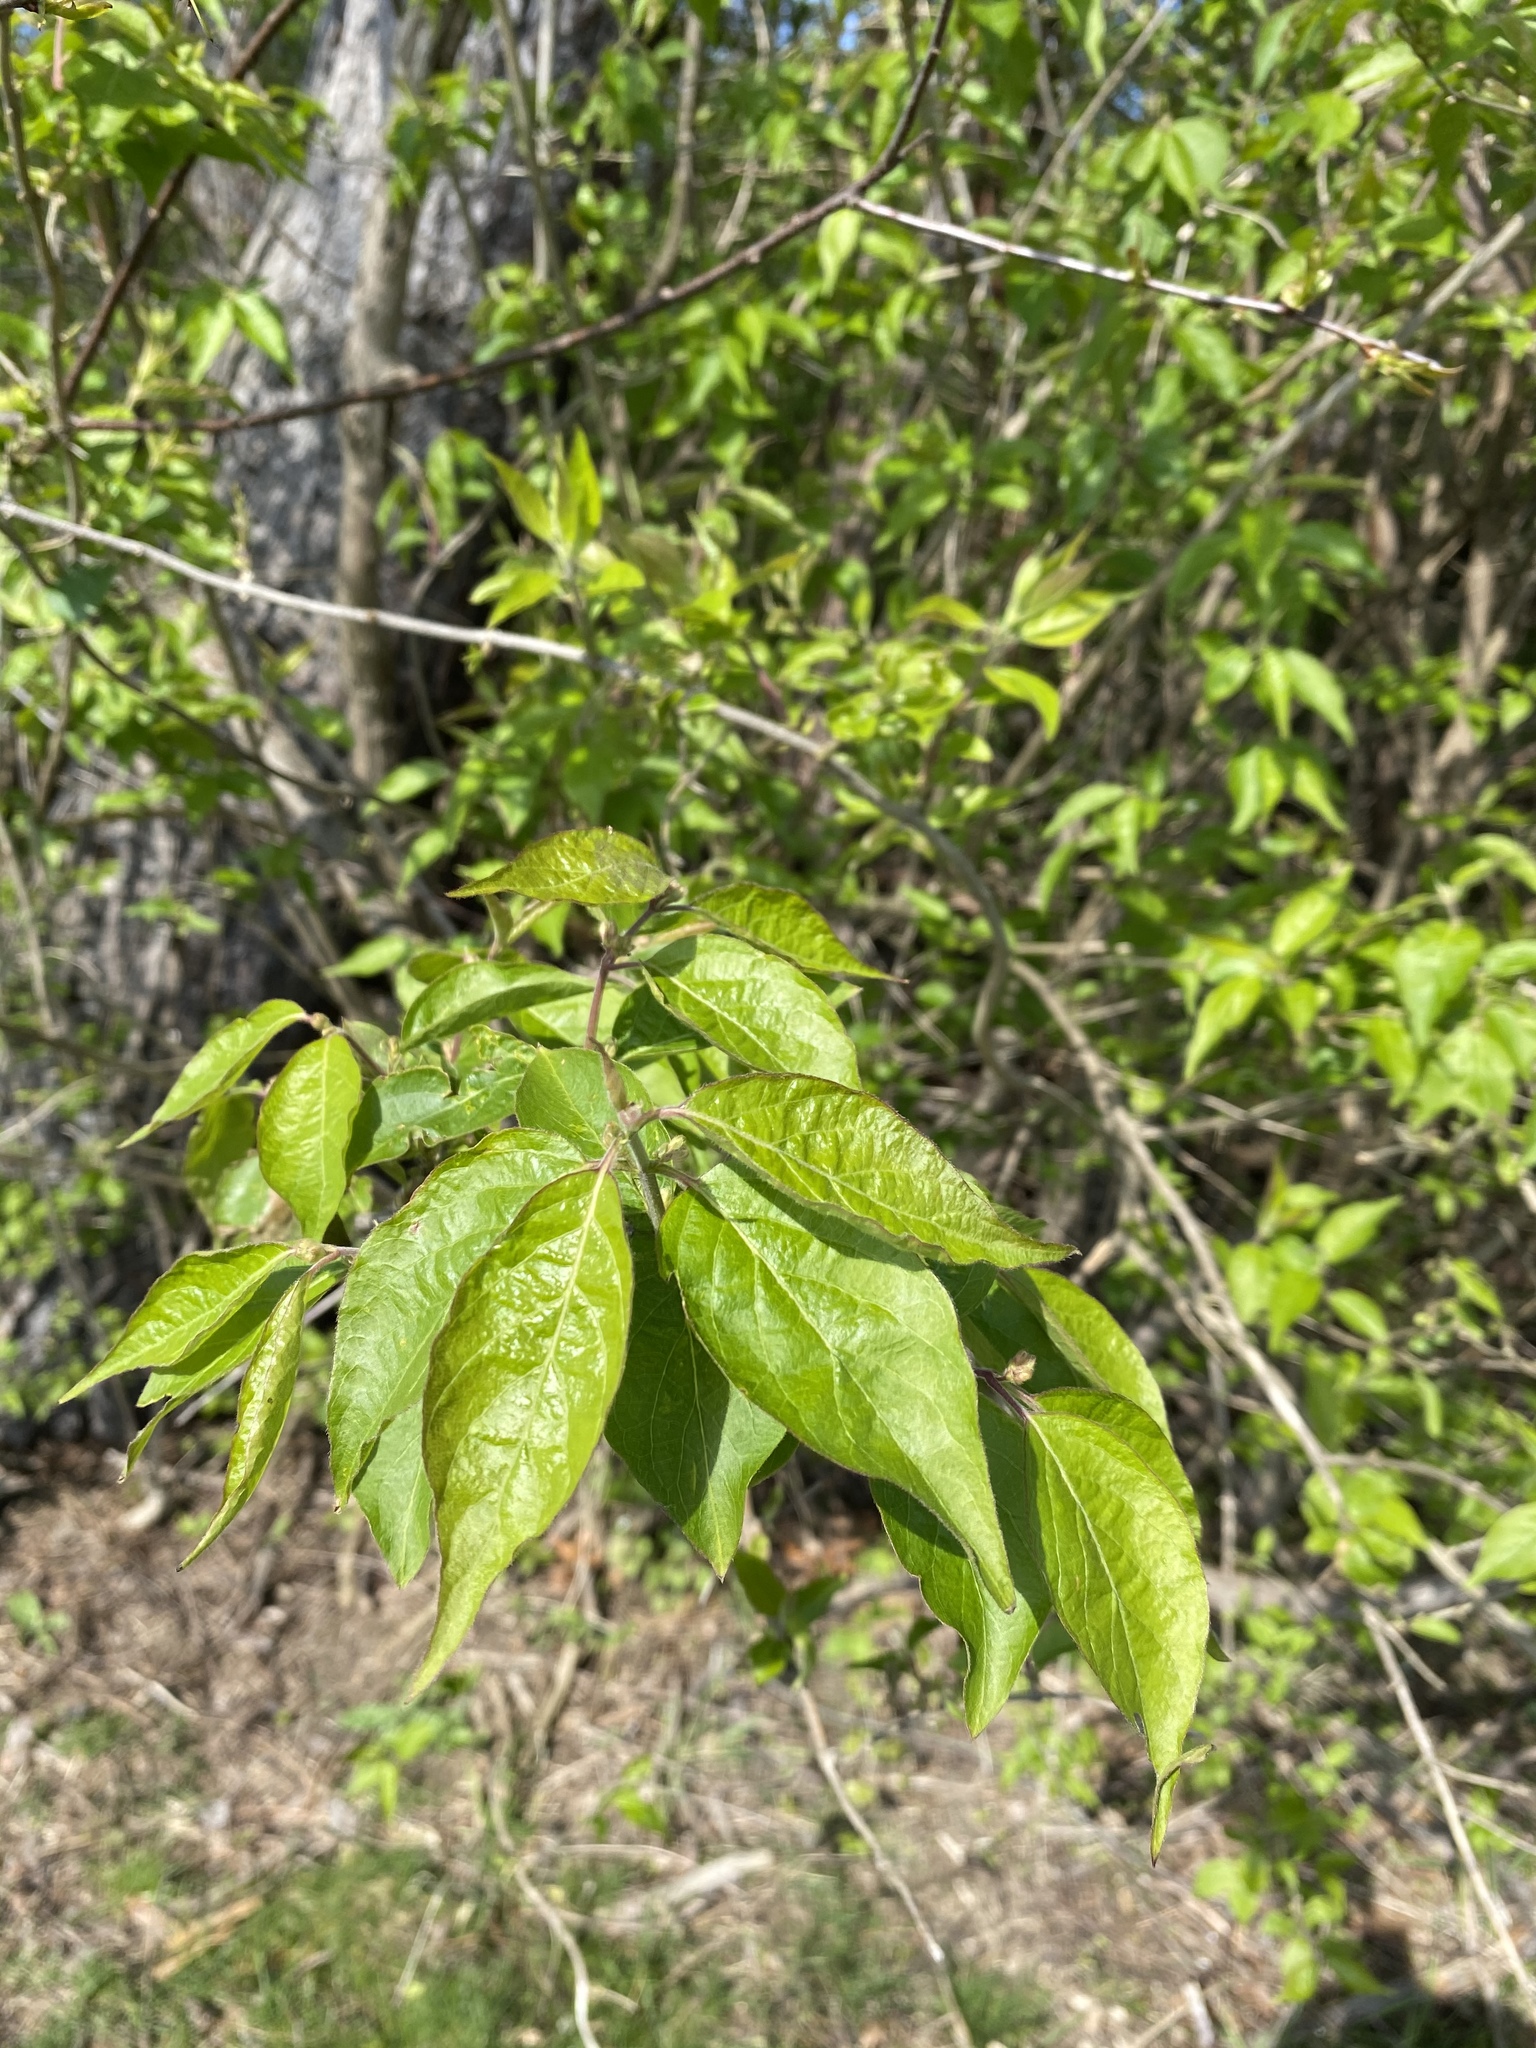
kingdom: Plantae
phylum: Tracheophyta
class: Magnoliopsida
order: Dipsacales
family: Caprifoliaceae
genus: Lonicera
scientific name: Lonicera maackii
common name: Amur honeysuckle
